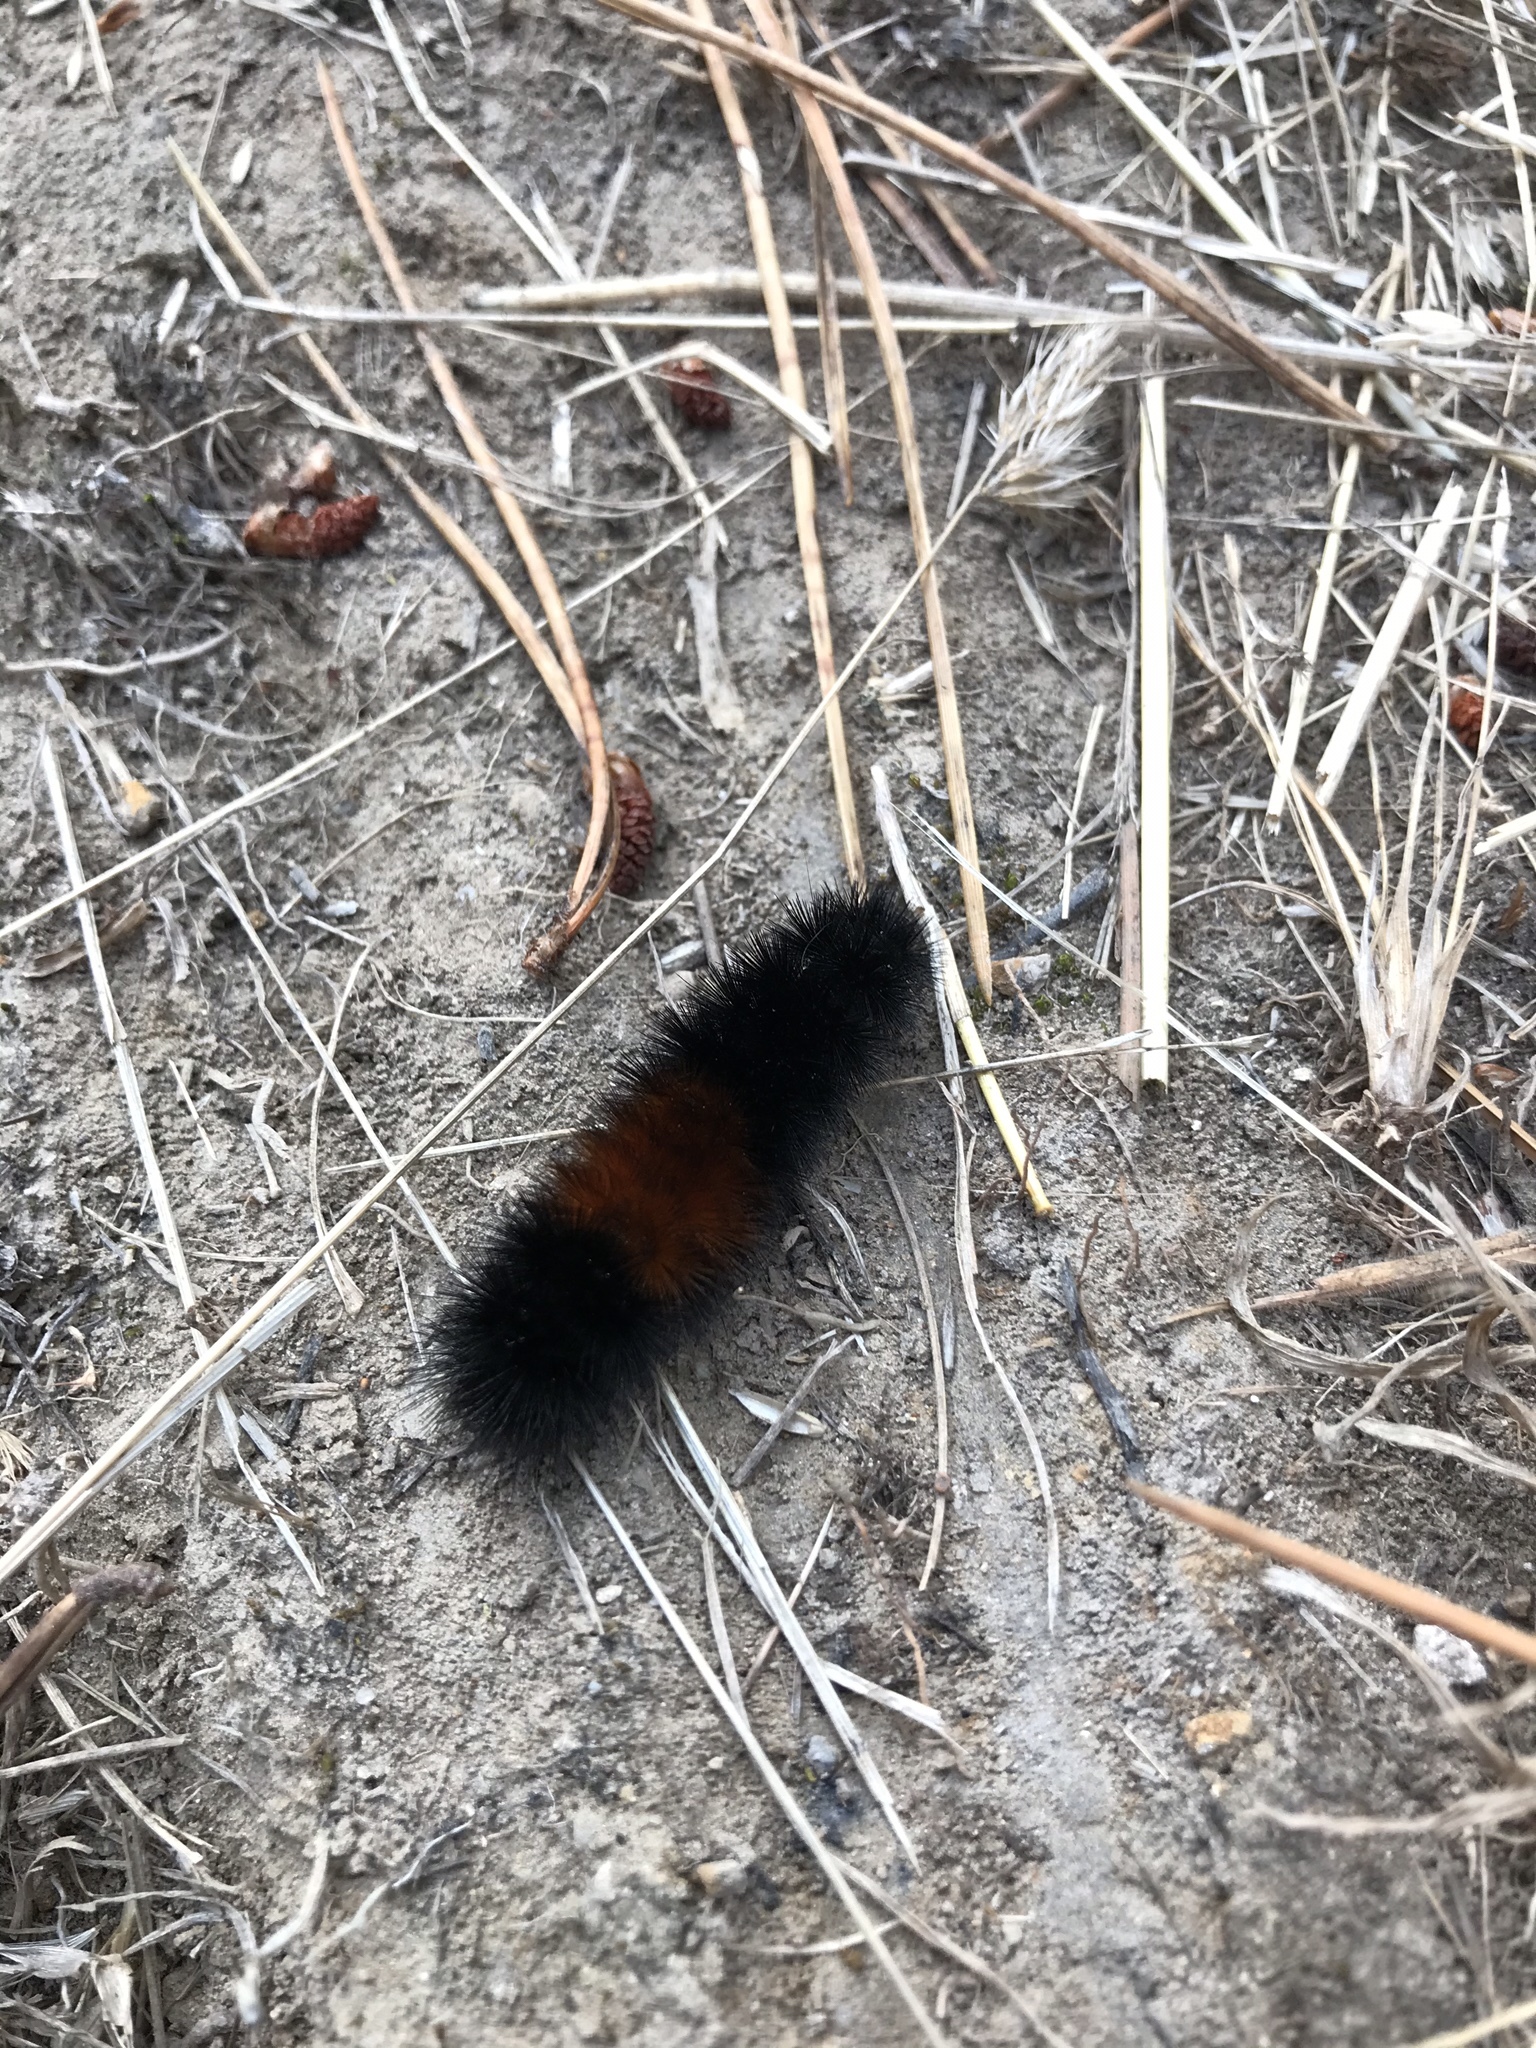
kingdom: Animalia
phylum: Arthropoda
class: Insecta
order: Lepidoptera
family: Erebidae
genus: Pyrrharctia
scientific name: Pyrrharctia isabella
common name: Isabella tiger moth
